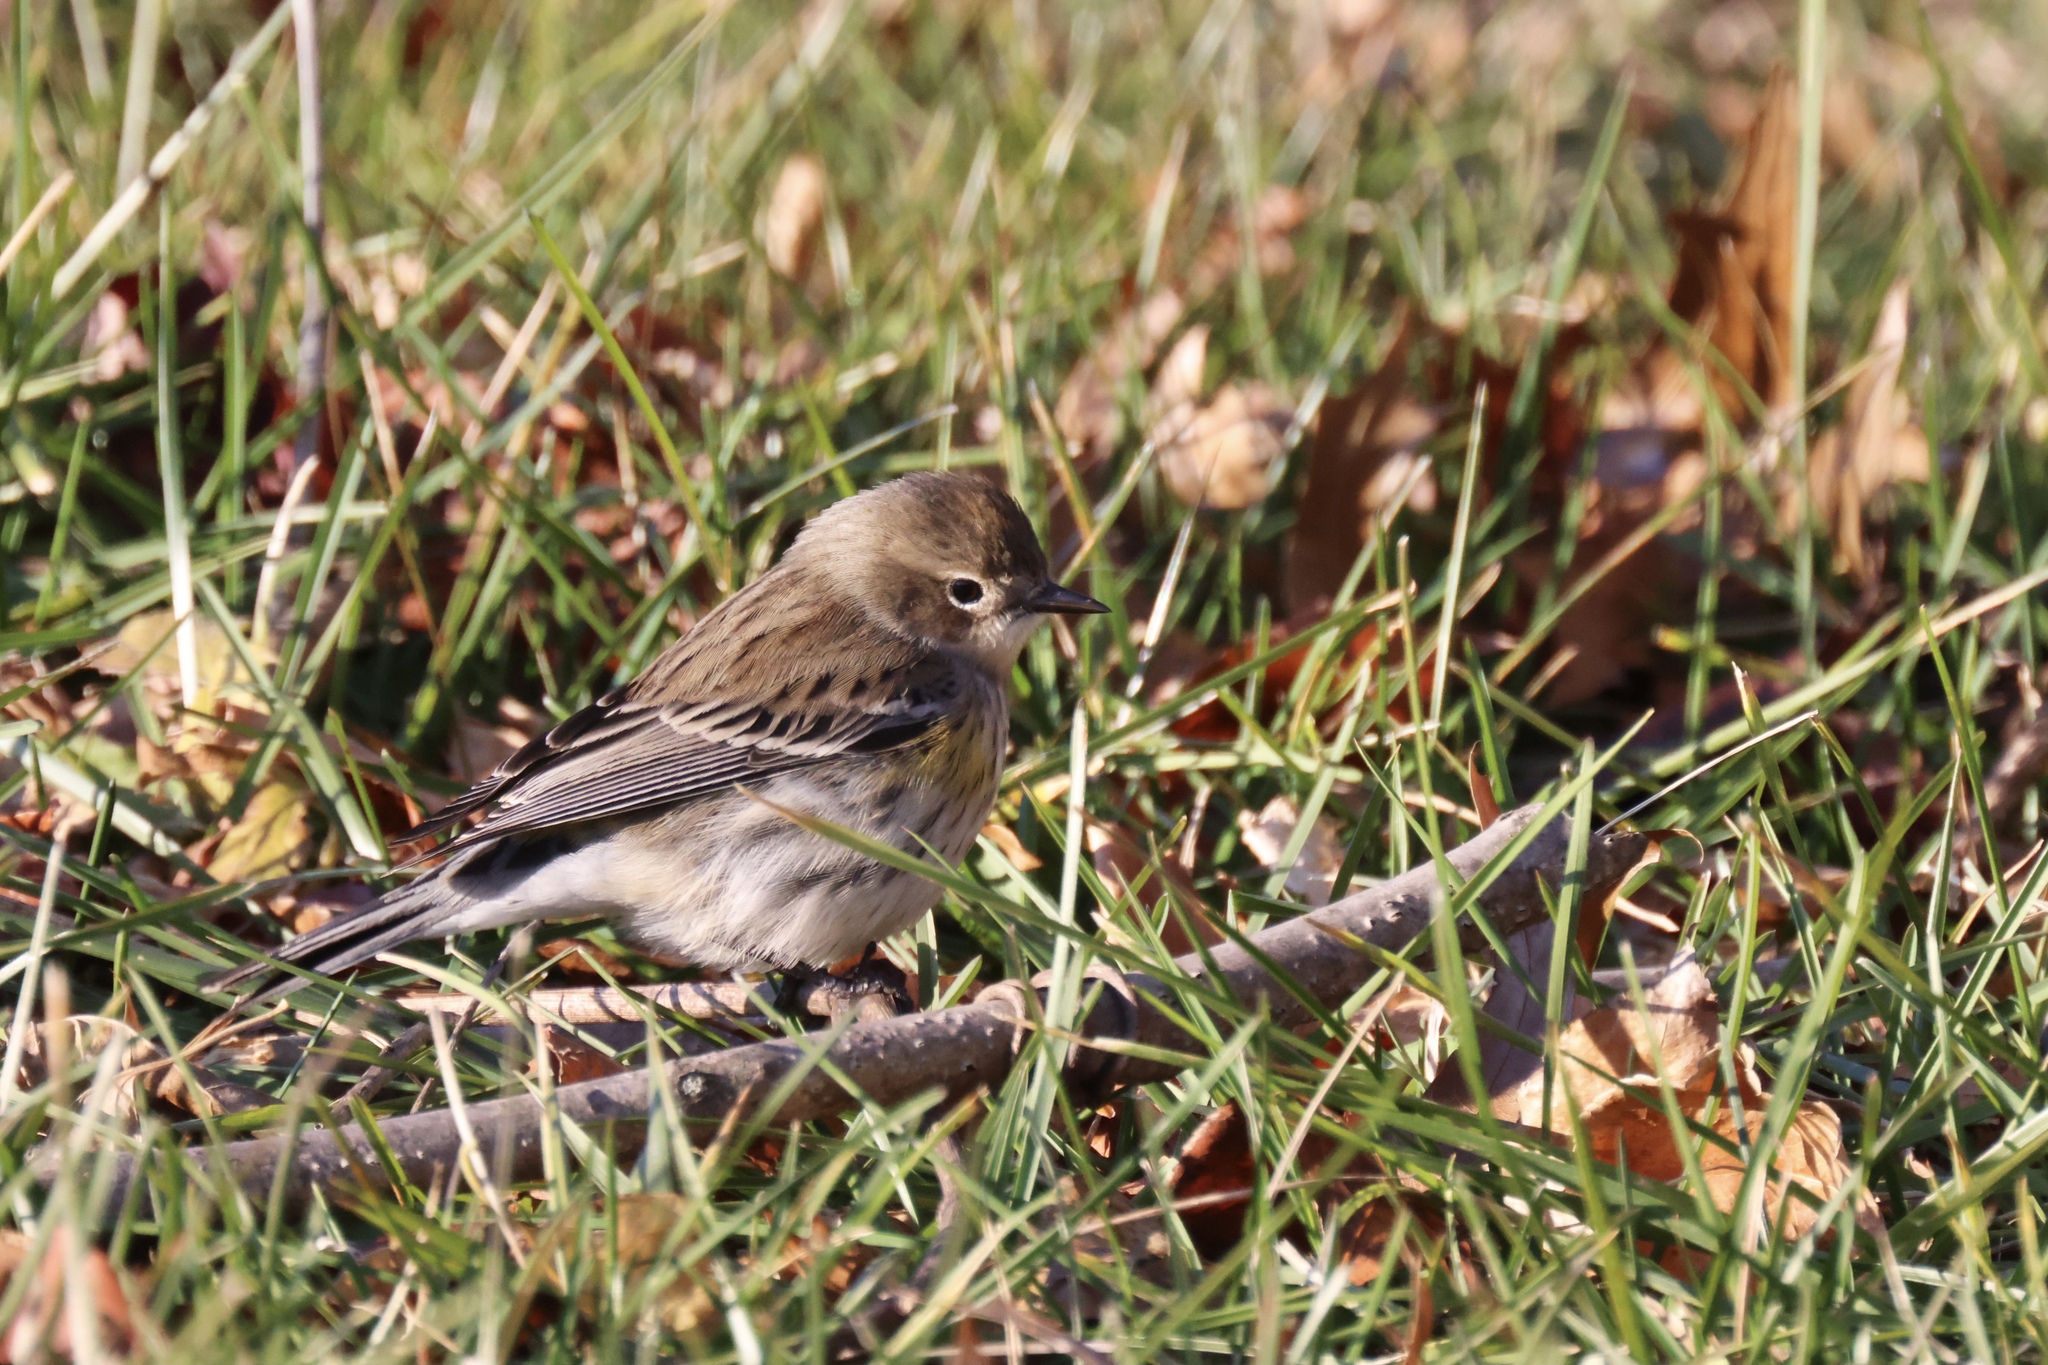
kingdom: Animalia
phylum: Chordata
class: Aves
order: Passeriformes
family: Parulidae
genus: Setophaga
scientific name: Setophaga coronata
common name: Myrtle warbler
